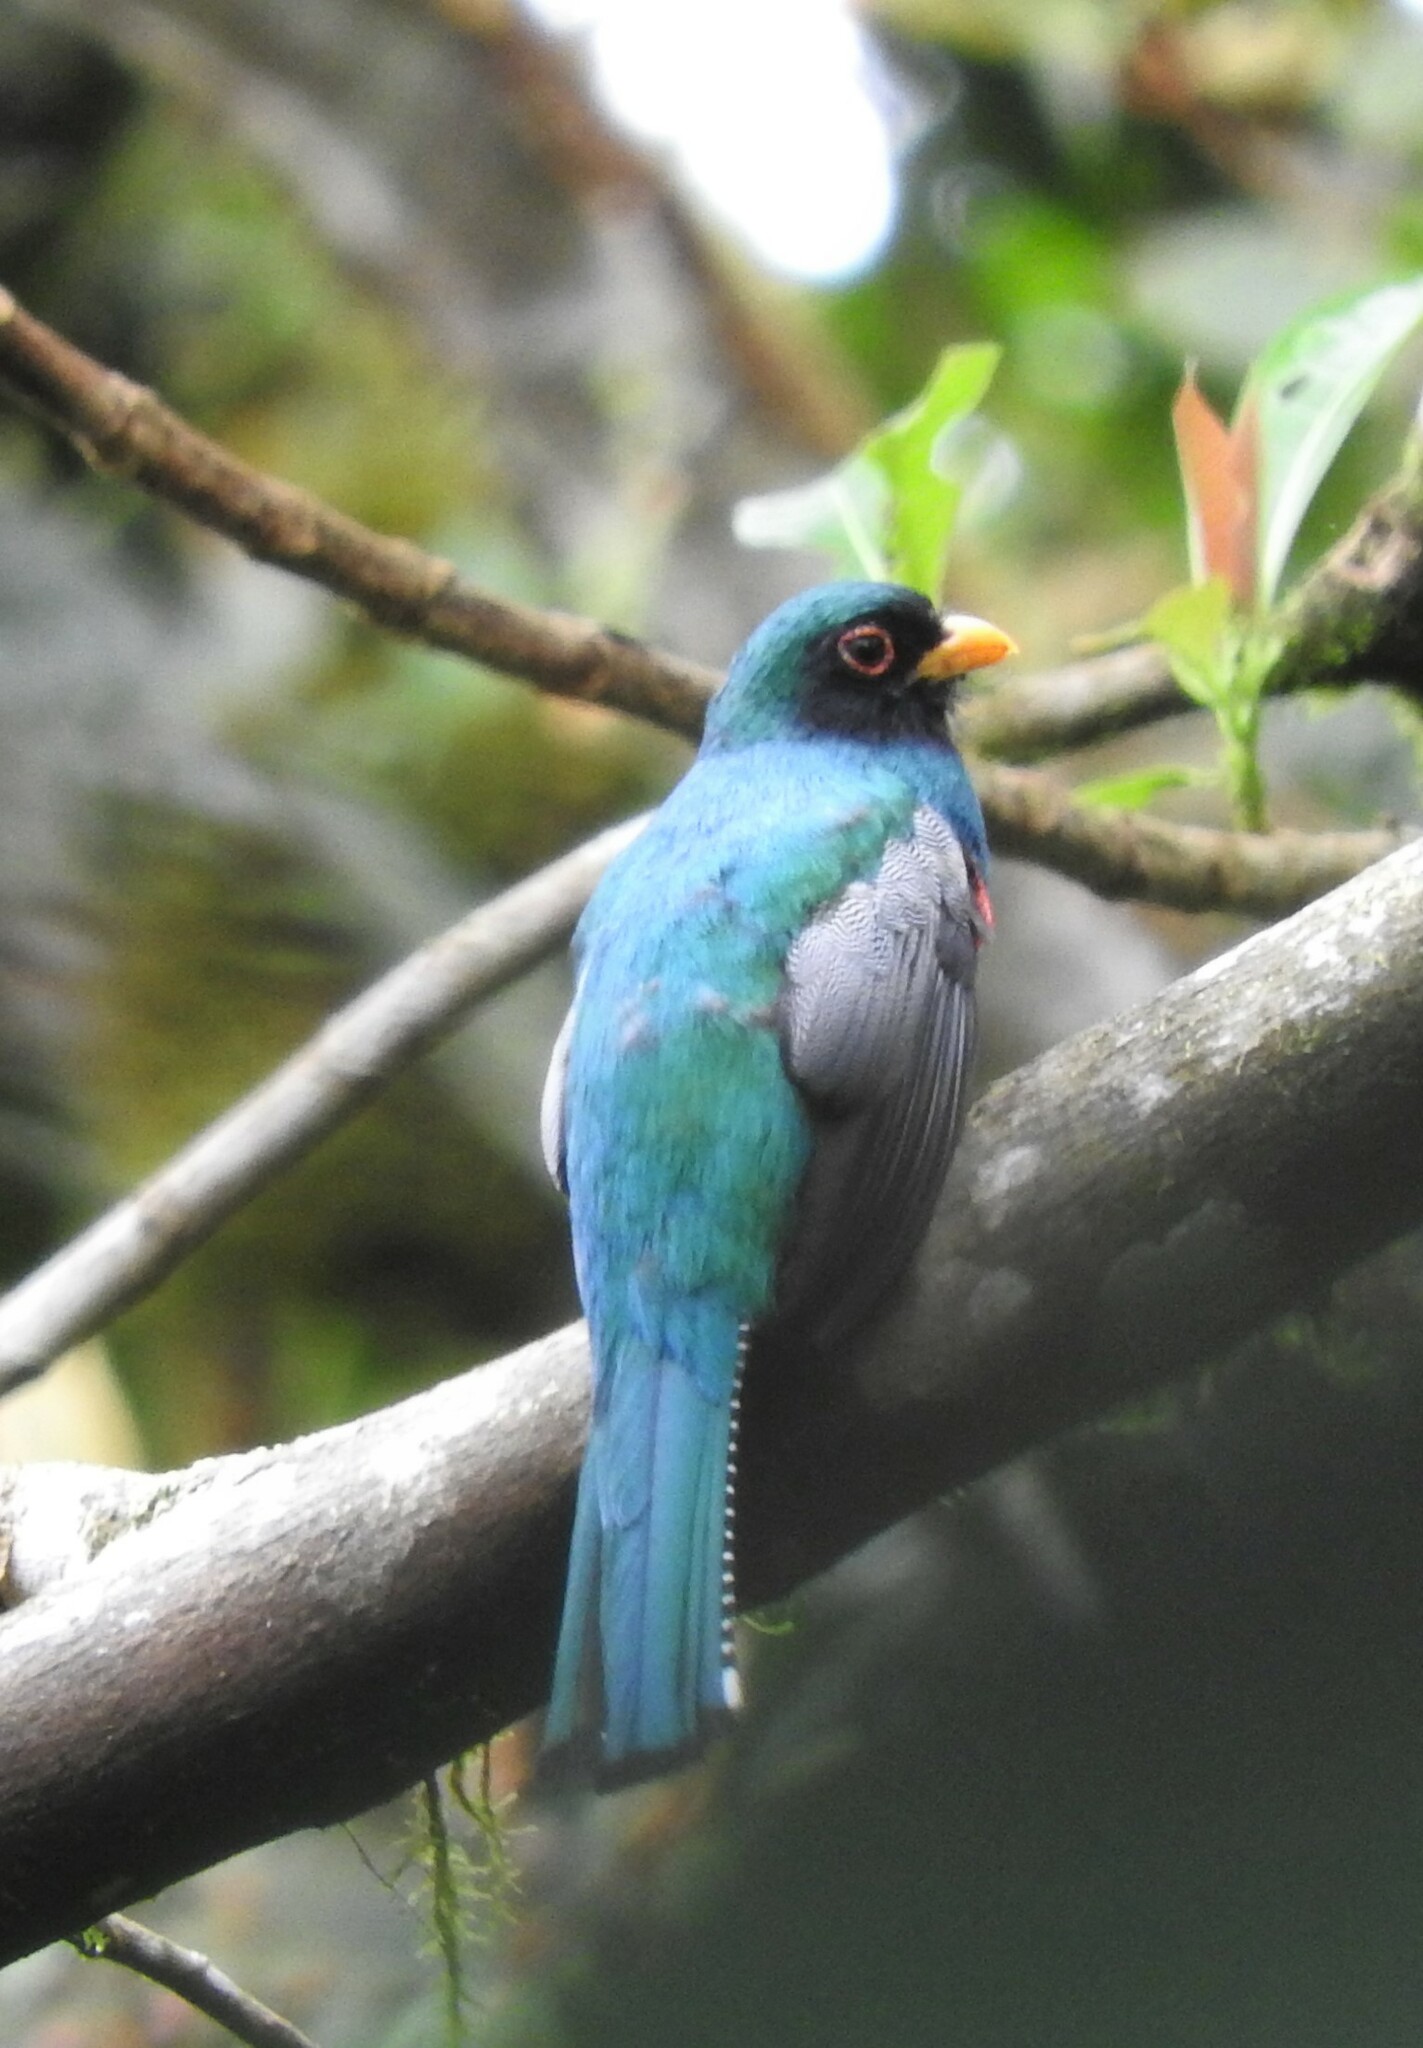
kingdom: Animalia
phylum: Chordata
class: Aves
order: Trogoniformes
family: Trogonidae
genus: Trogon
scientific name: Trogon personatus
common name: Masked trogon
